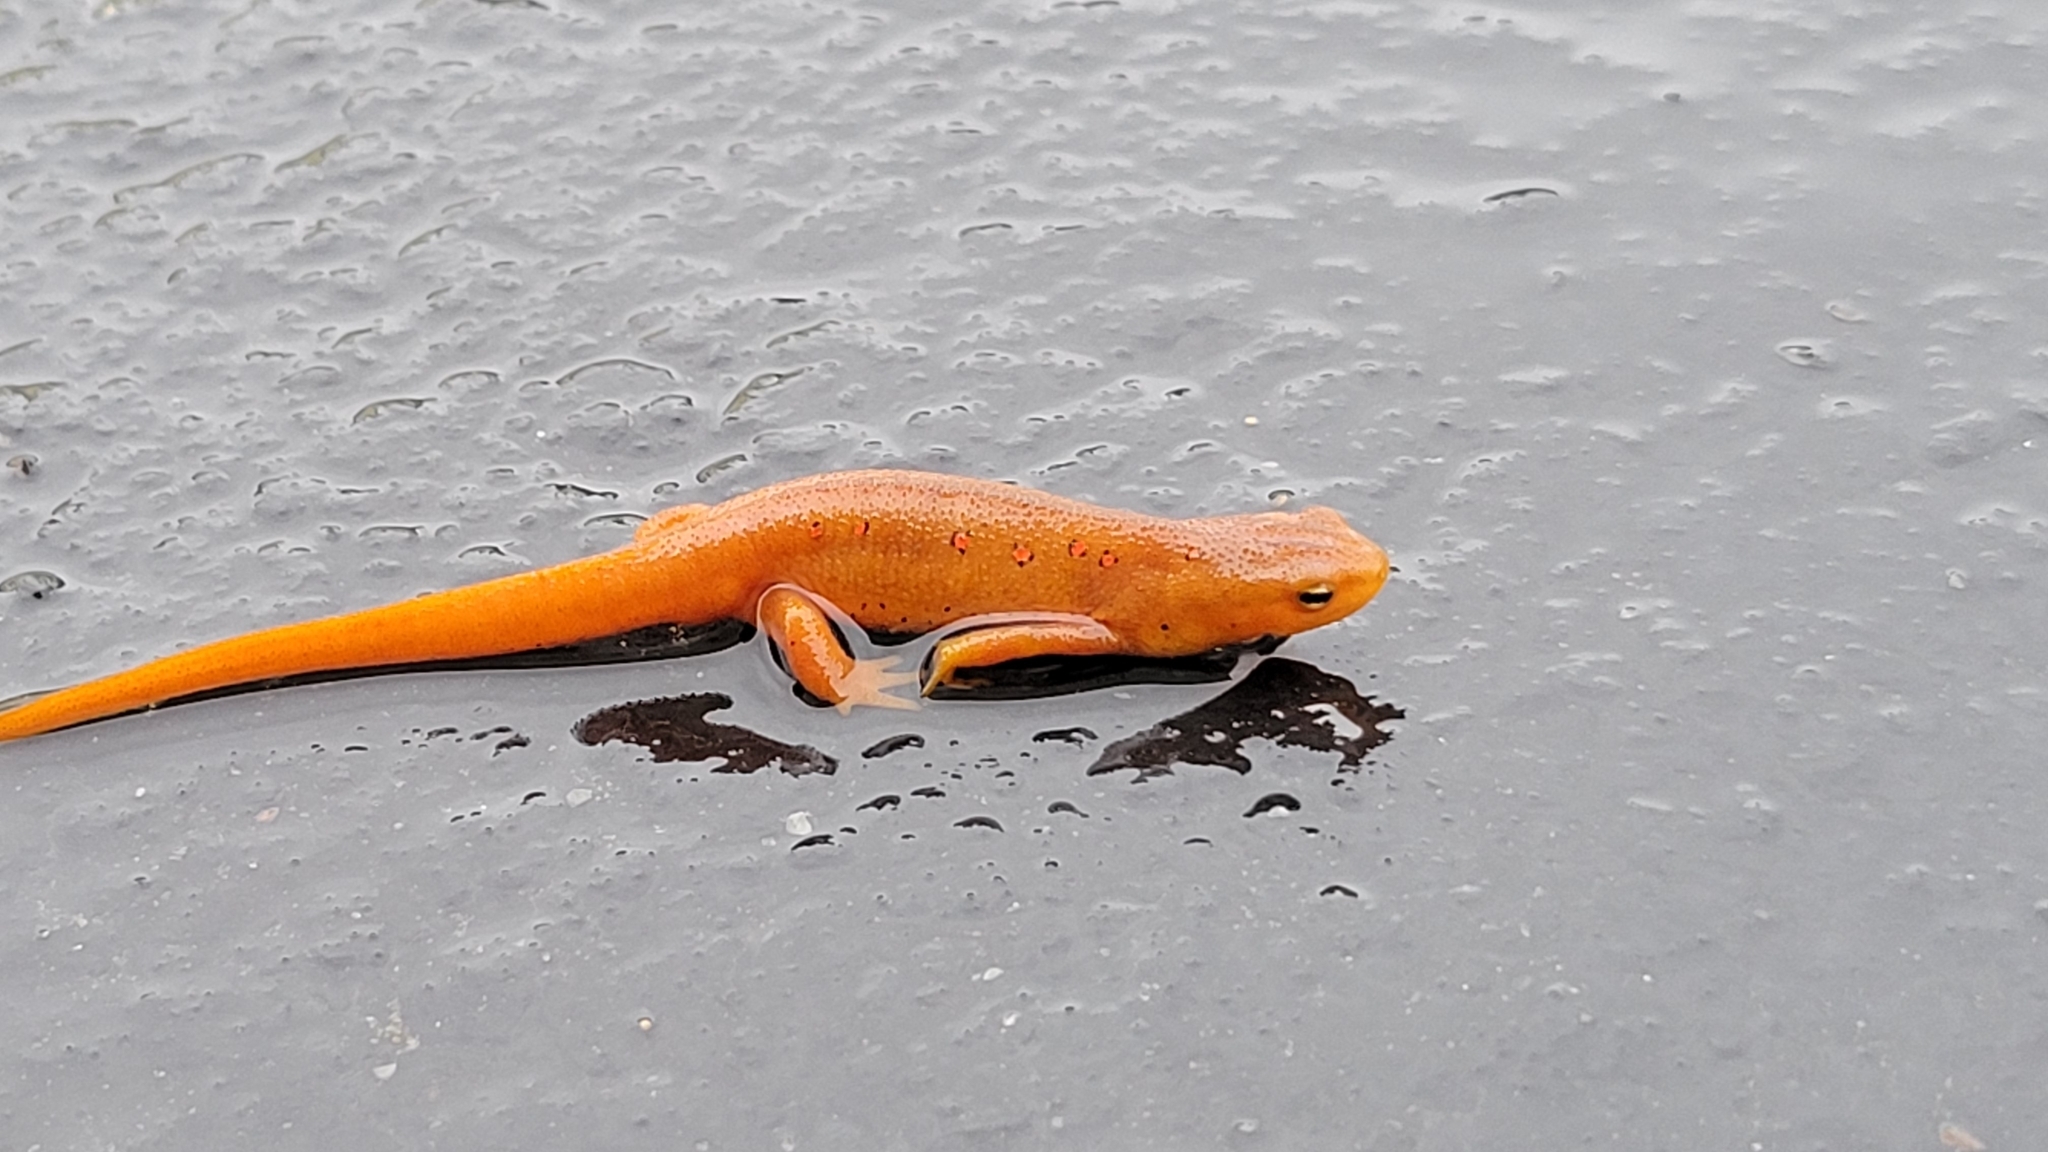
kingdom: Animalia
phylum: Chordata
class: Amphibia
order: Caudata
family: Salamandridae
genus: Notophthalmus
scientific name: Notophthalmus viridescens
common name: Eastern newt
